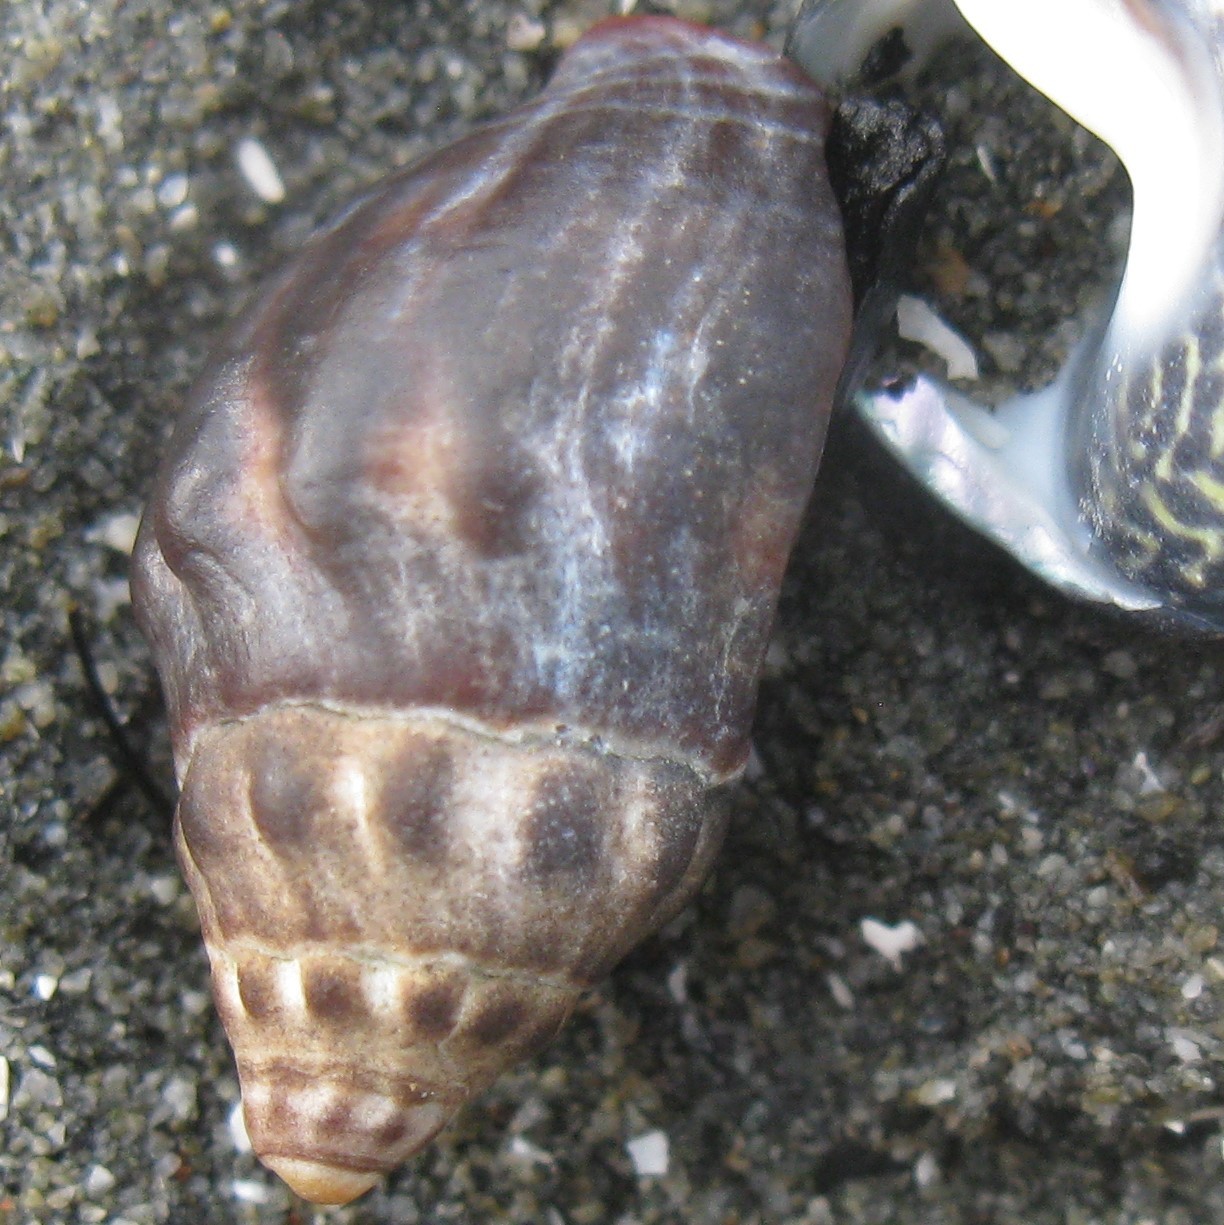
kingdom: Animalia
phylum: Mollusca
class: Gastropoda
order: Neogastropoda
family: Cominellidae
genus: Cominella
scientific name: Cominella glandiformis
